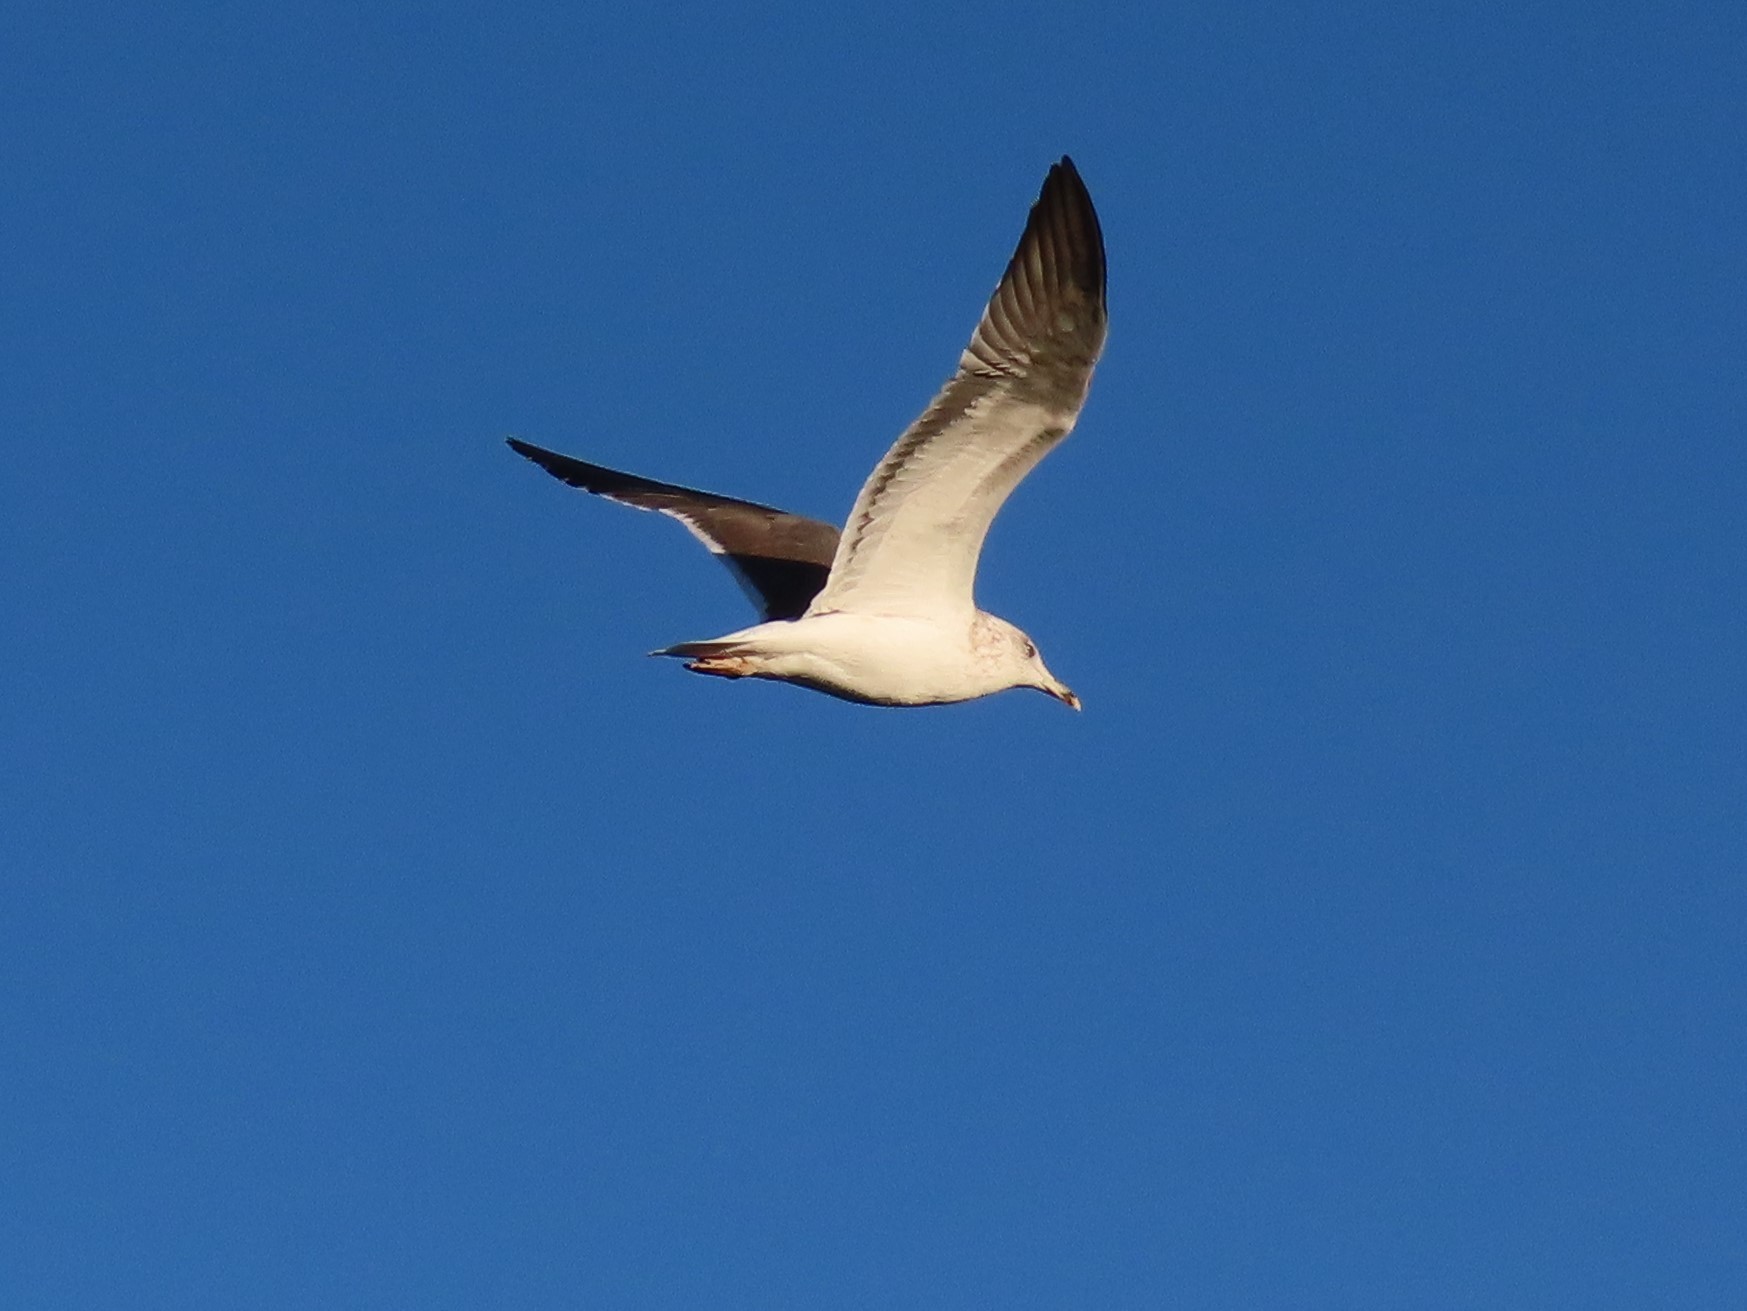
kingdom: Animalia
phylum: Chordata
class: Aves
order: Charadriiformes
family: Laridae
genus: Larus
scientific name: Larus fuscus
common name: Lesser black-backed gull
